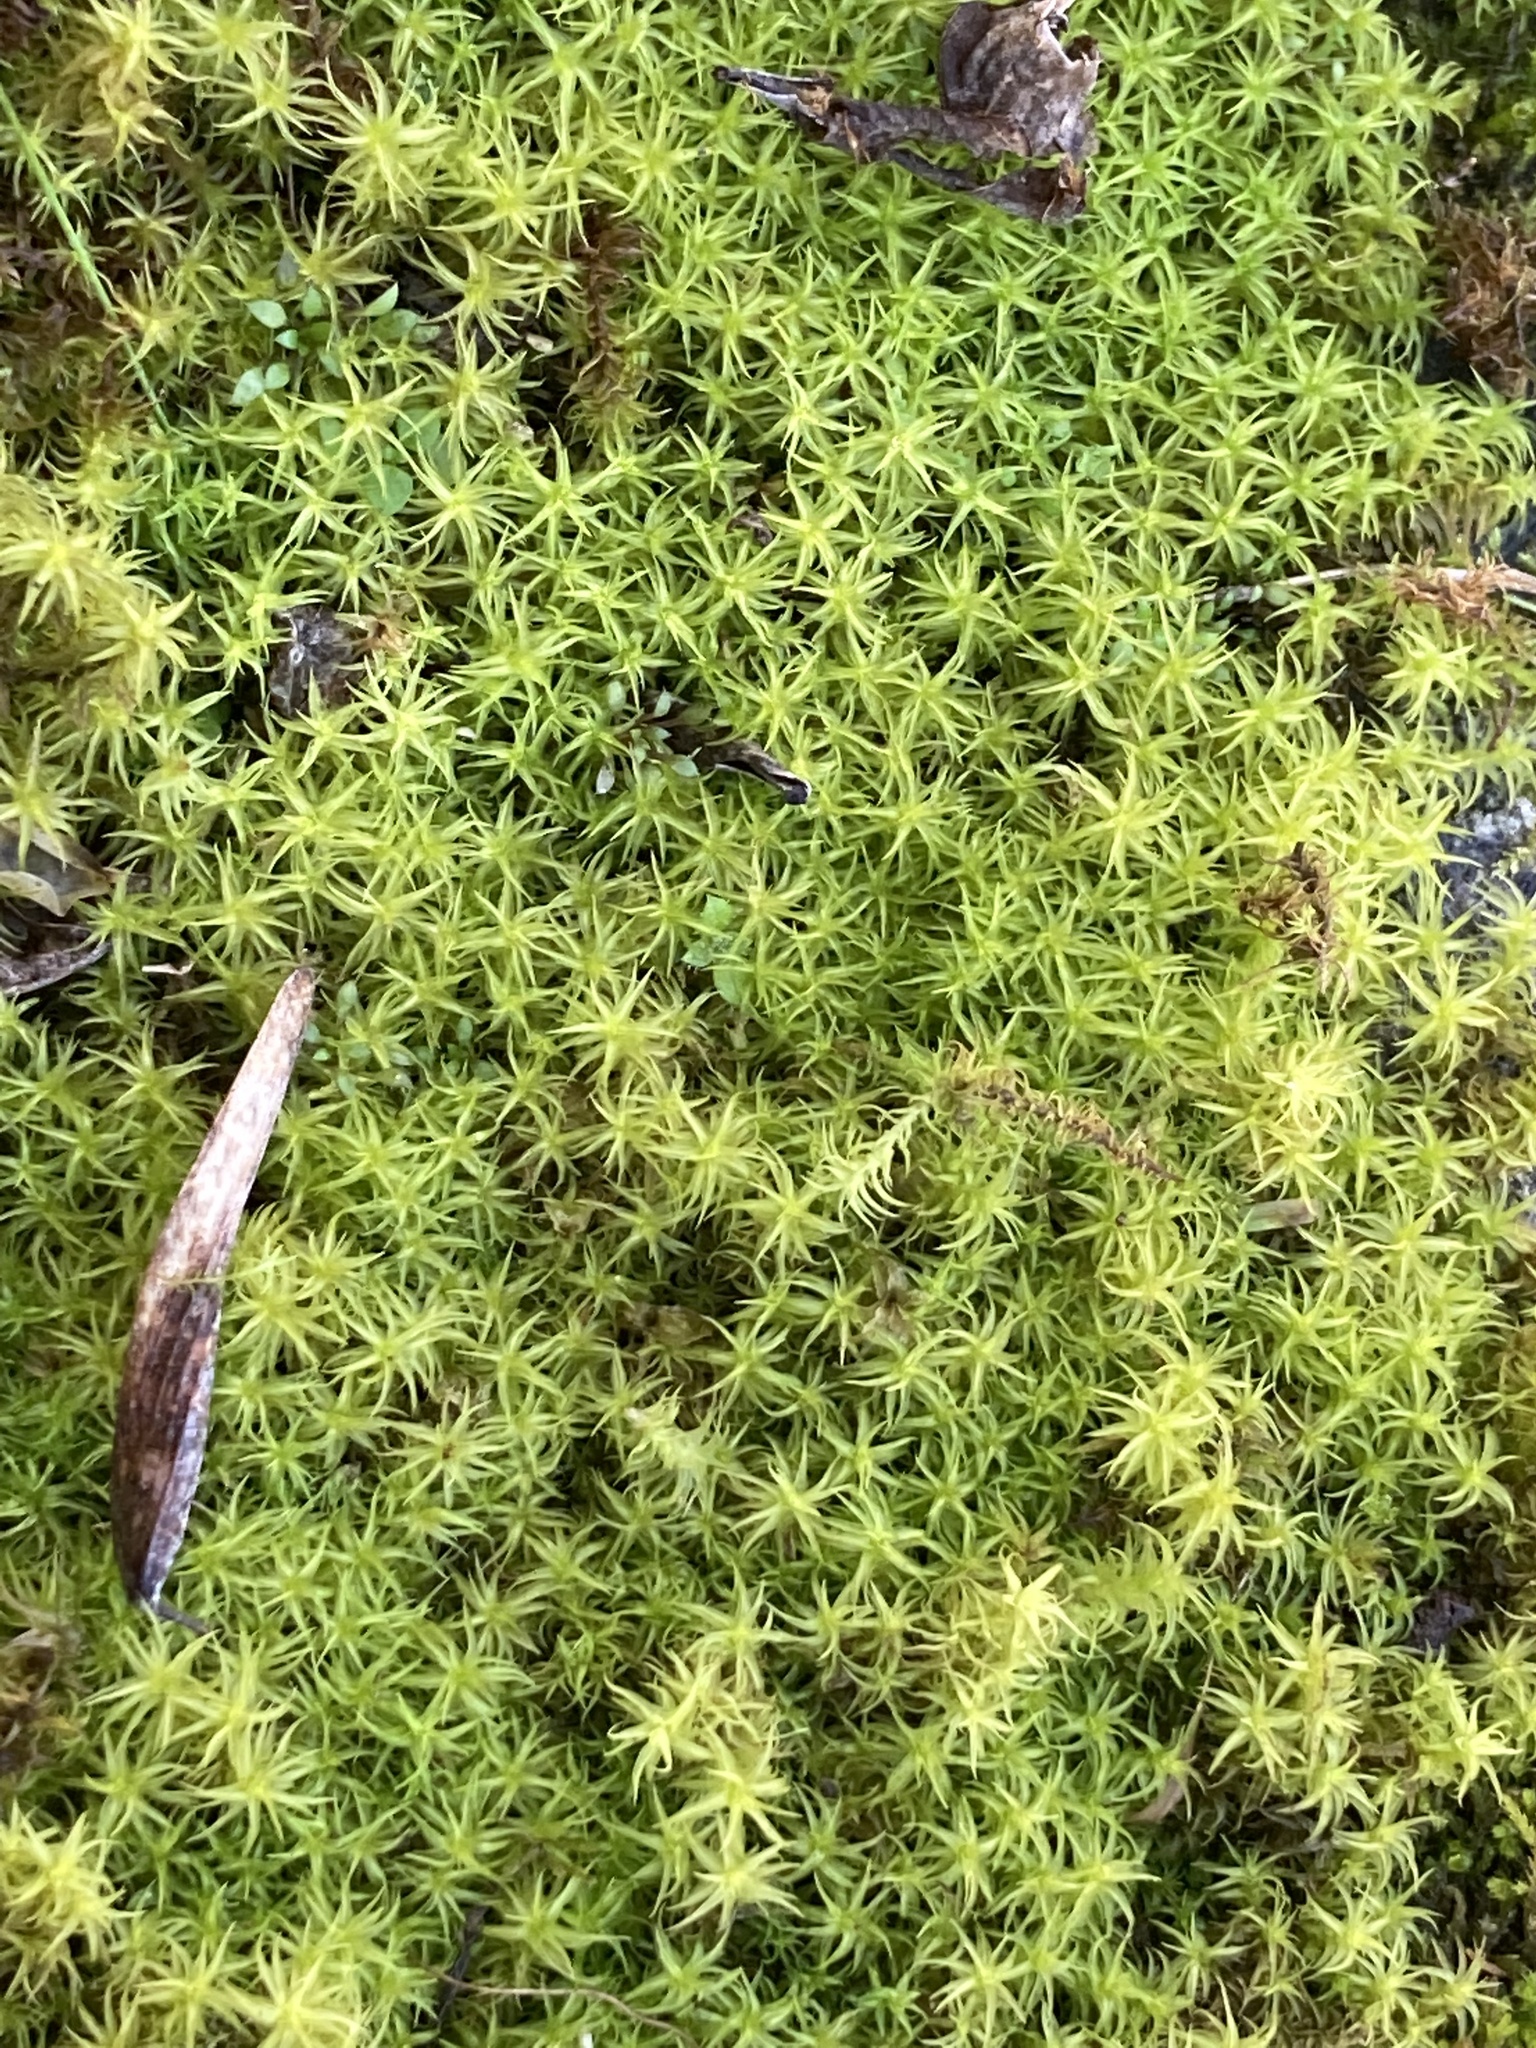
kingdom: Plantae
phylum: Bryophyta
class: Bryopsida
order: Pottiales
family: Pottiaceae
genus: Pleurochaete
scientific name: Pleurochaete squarrosa
